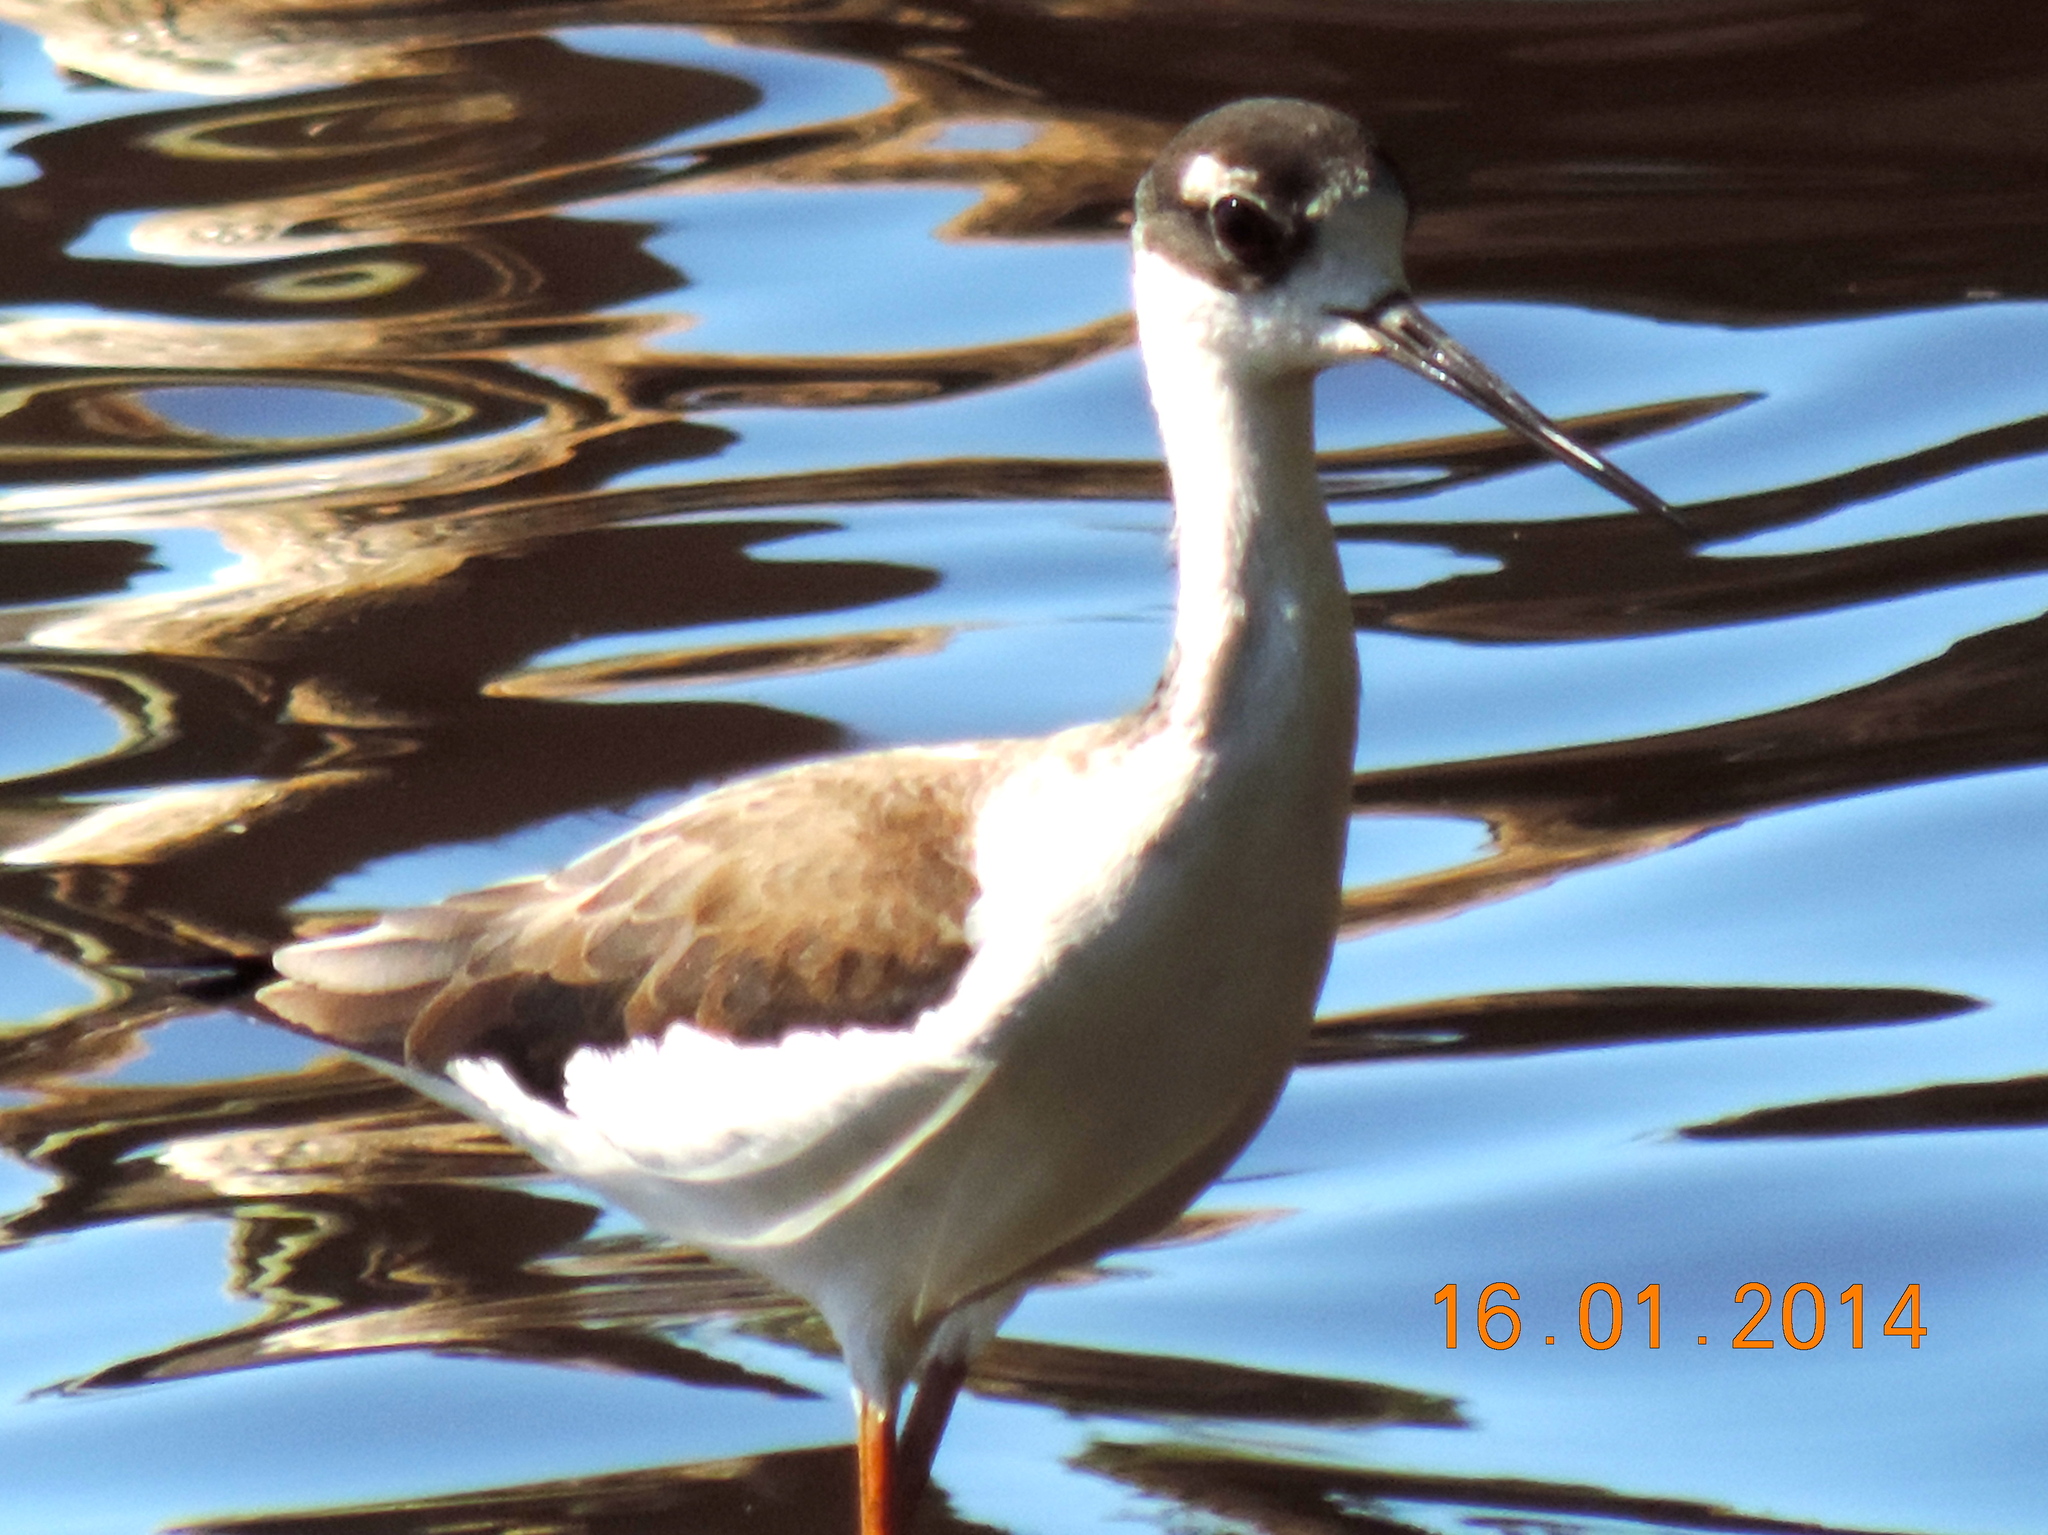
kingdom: Animalia
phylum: Chordata
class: Aves
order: Charadriiformes
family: Recurvirostridae
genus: Himantopus
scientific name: Himantopus mexicanus
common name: Black-necked stilt
